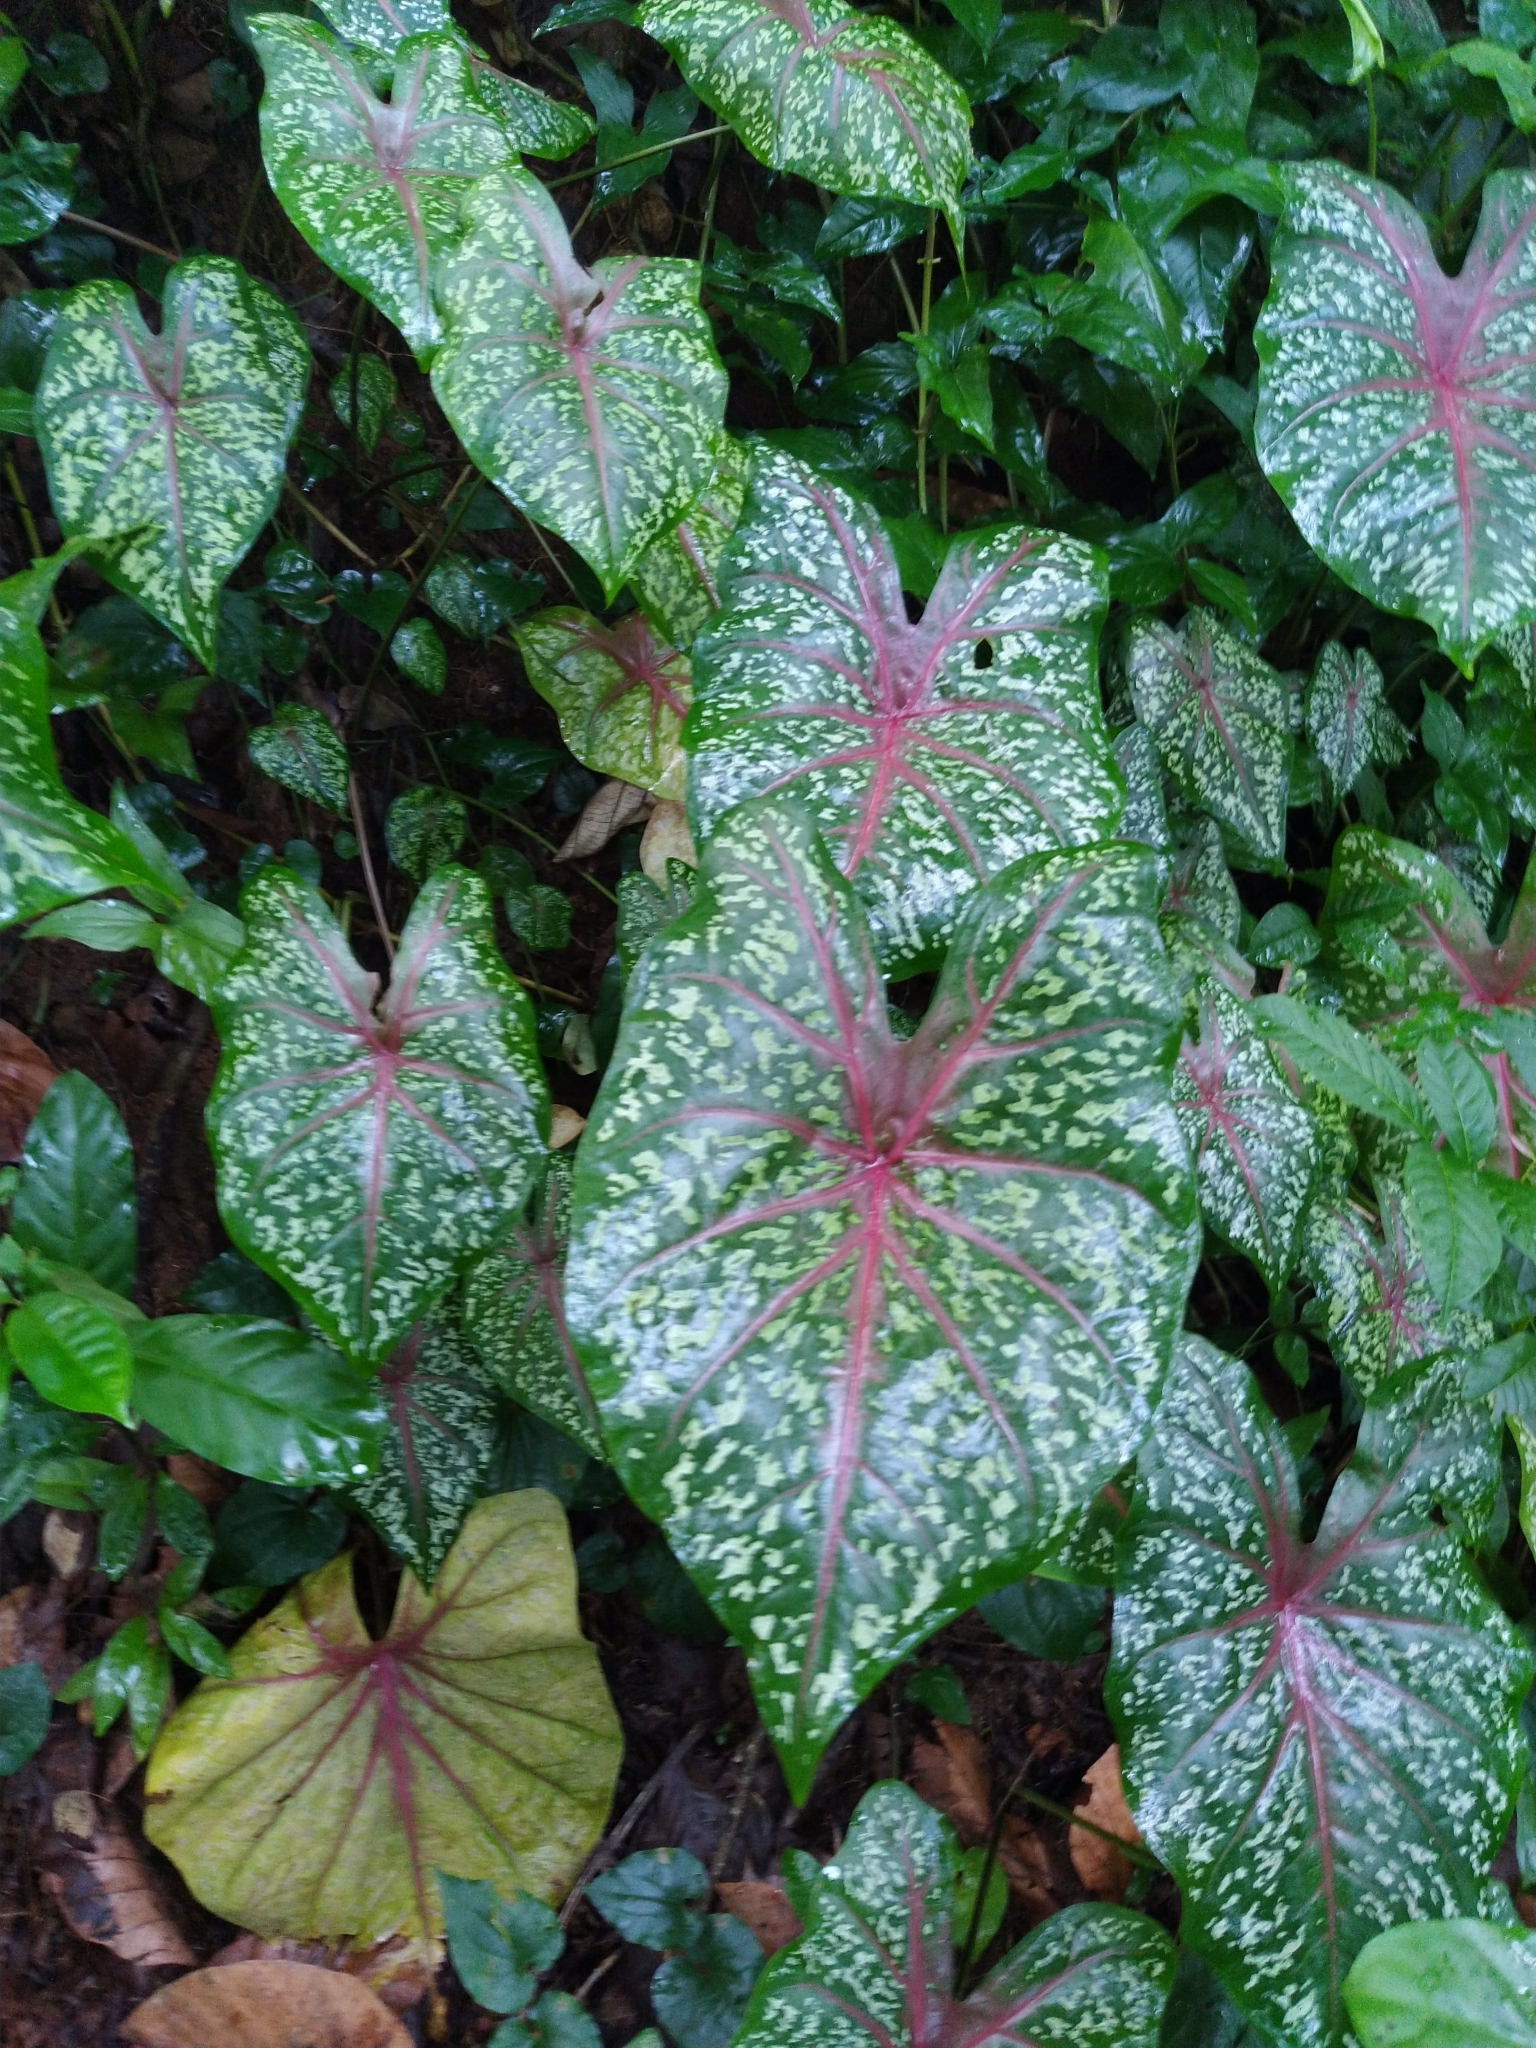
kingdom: Plantae
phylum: Tracheophyta
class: Liliopsida
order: Alismatales
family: Araceae
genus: Caladium
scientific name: Caladium bicolor
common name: Artist's pallet
